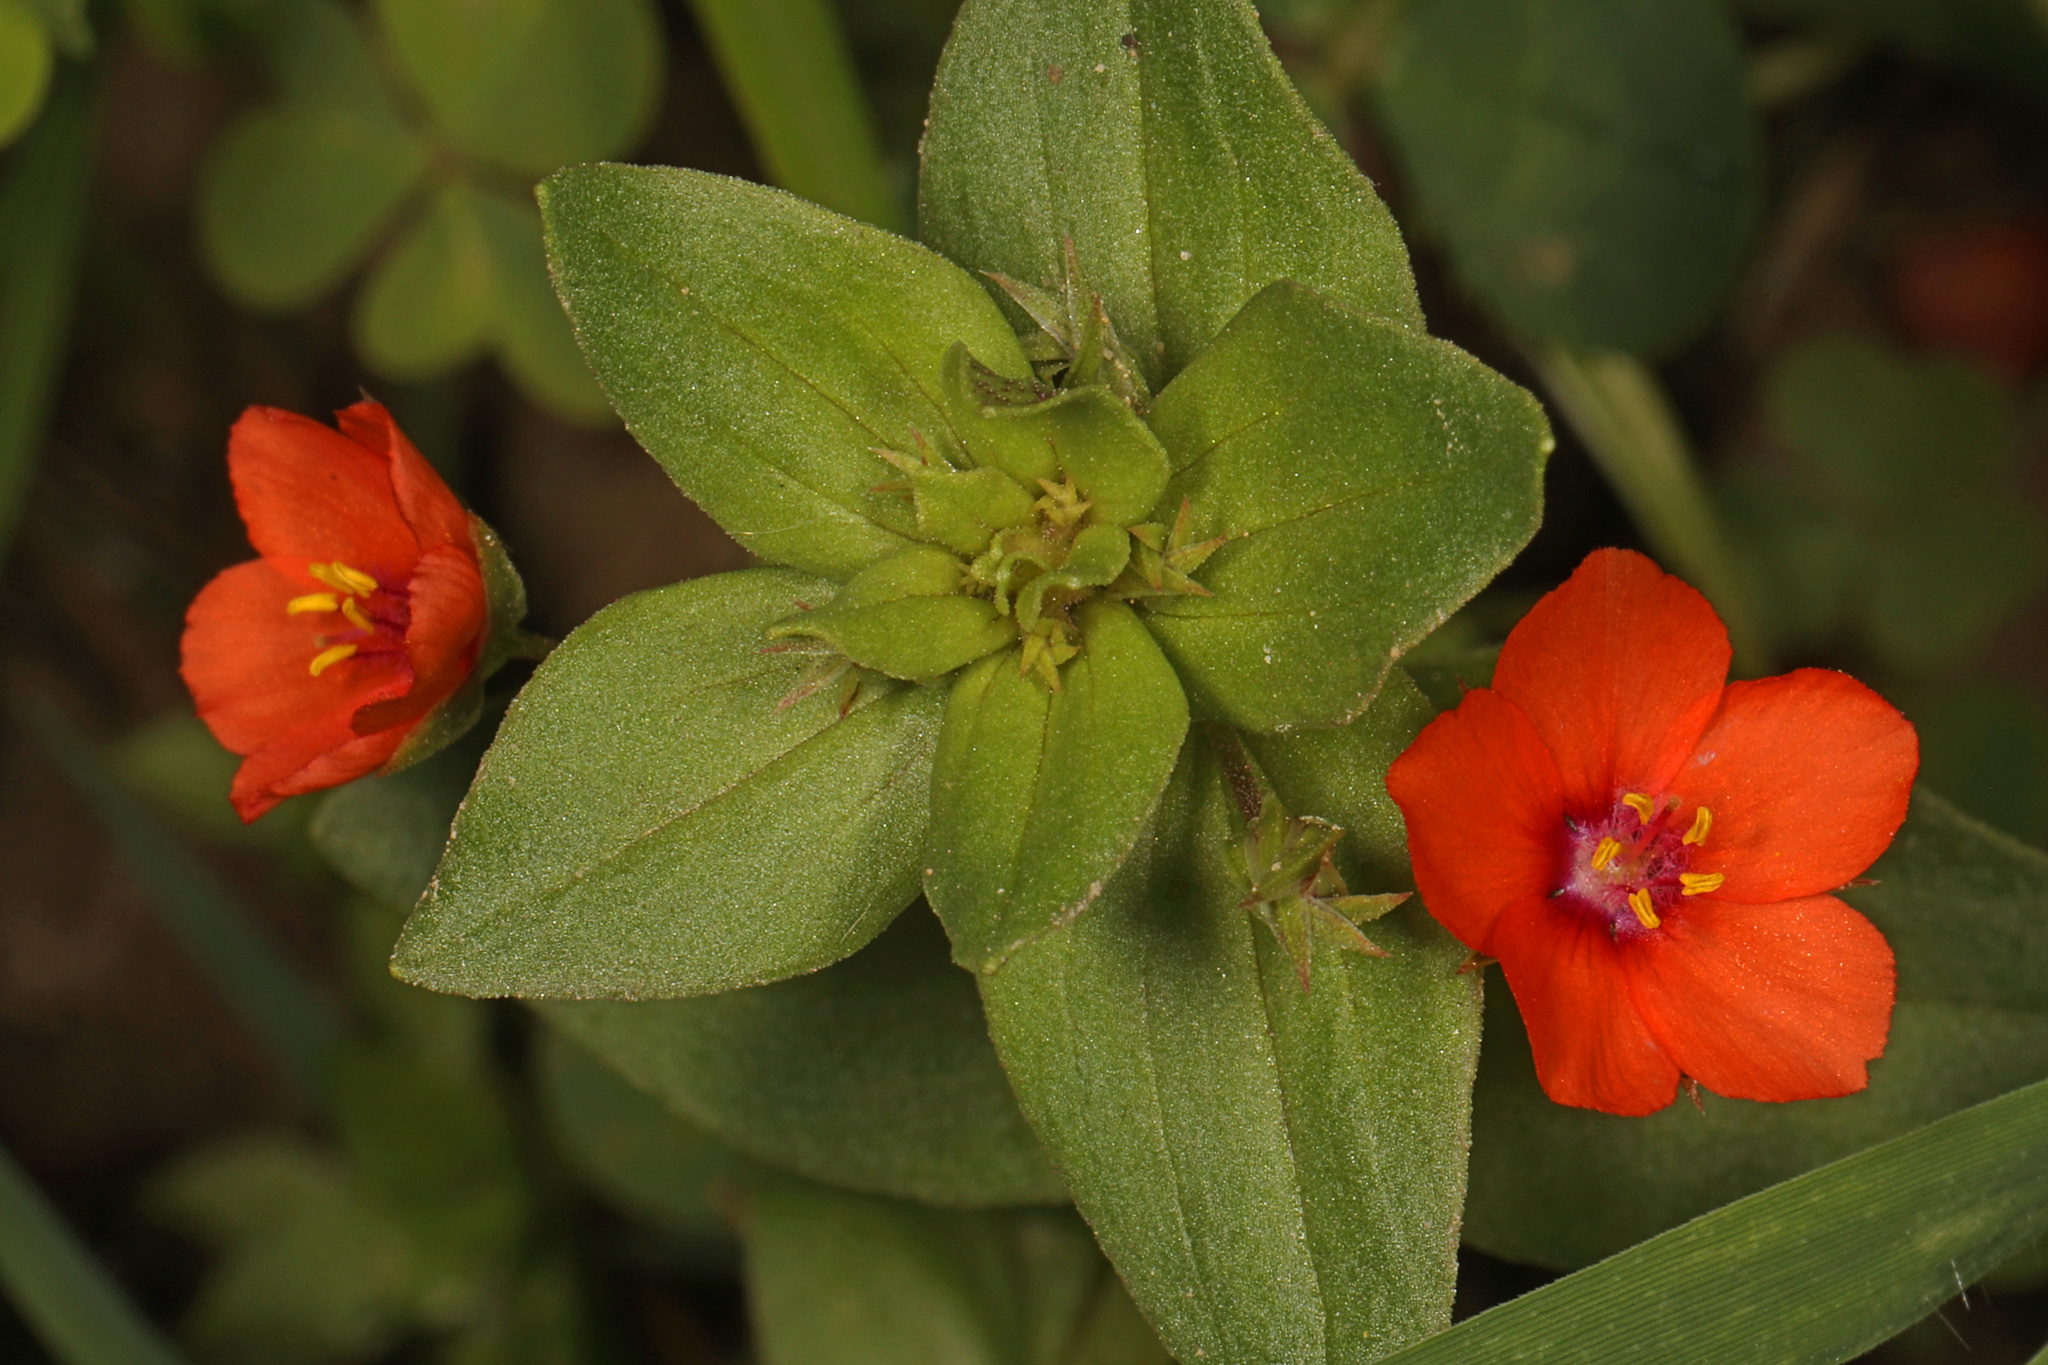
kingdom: Plantae
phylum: Tracheophyta
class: Magnoliopsida
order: Ericales
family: Primulaceae
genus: Lysimachia
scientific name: Lysimachia arvensis
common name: Scarlet pimpernel
